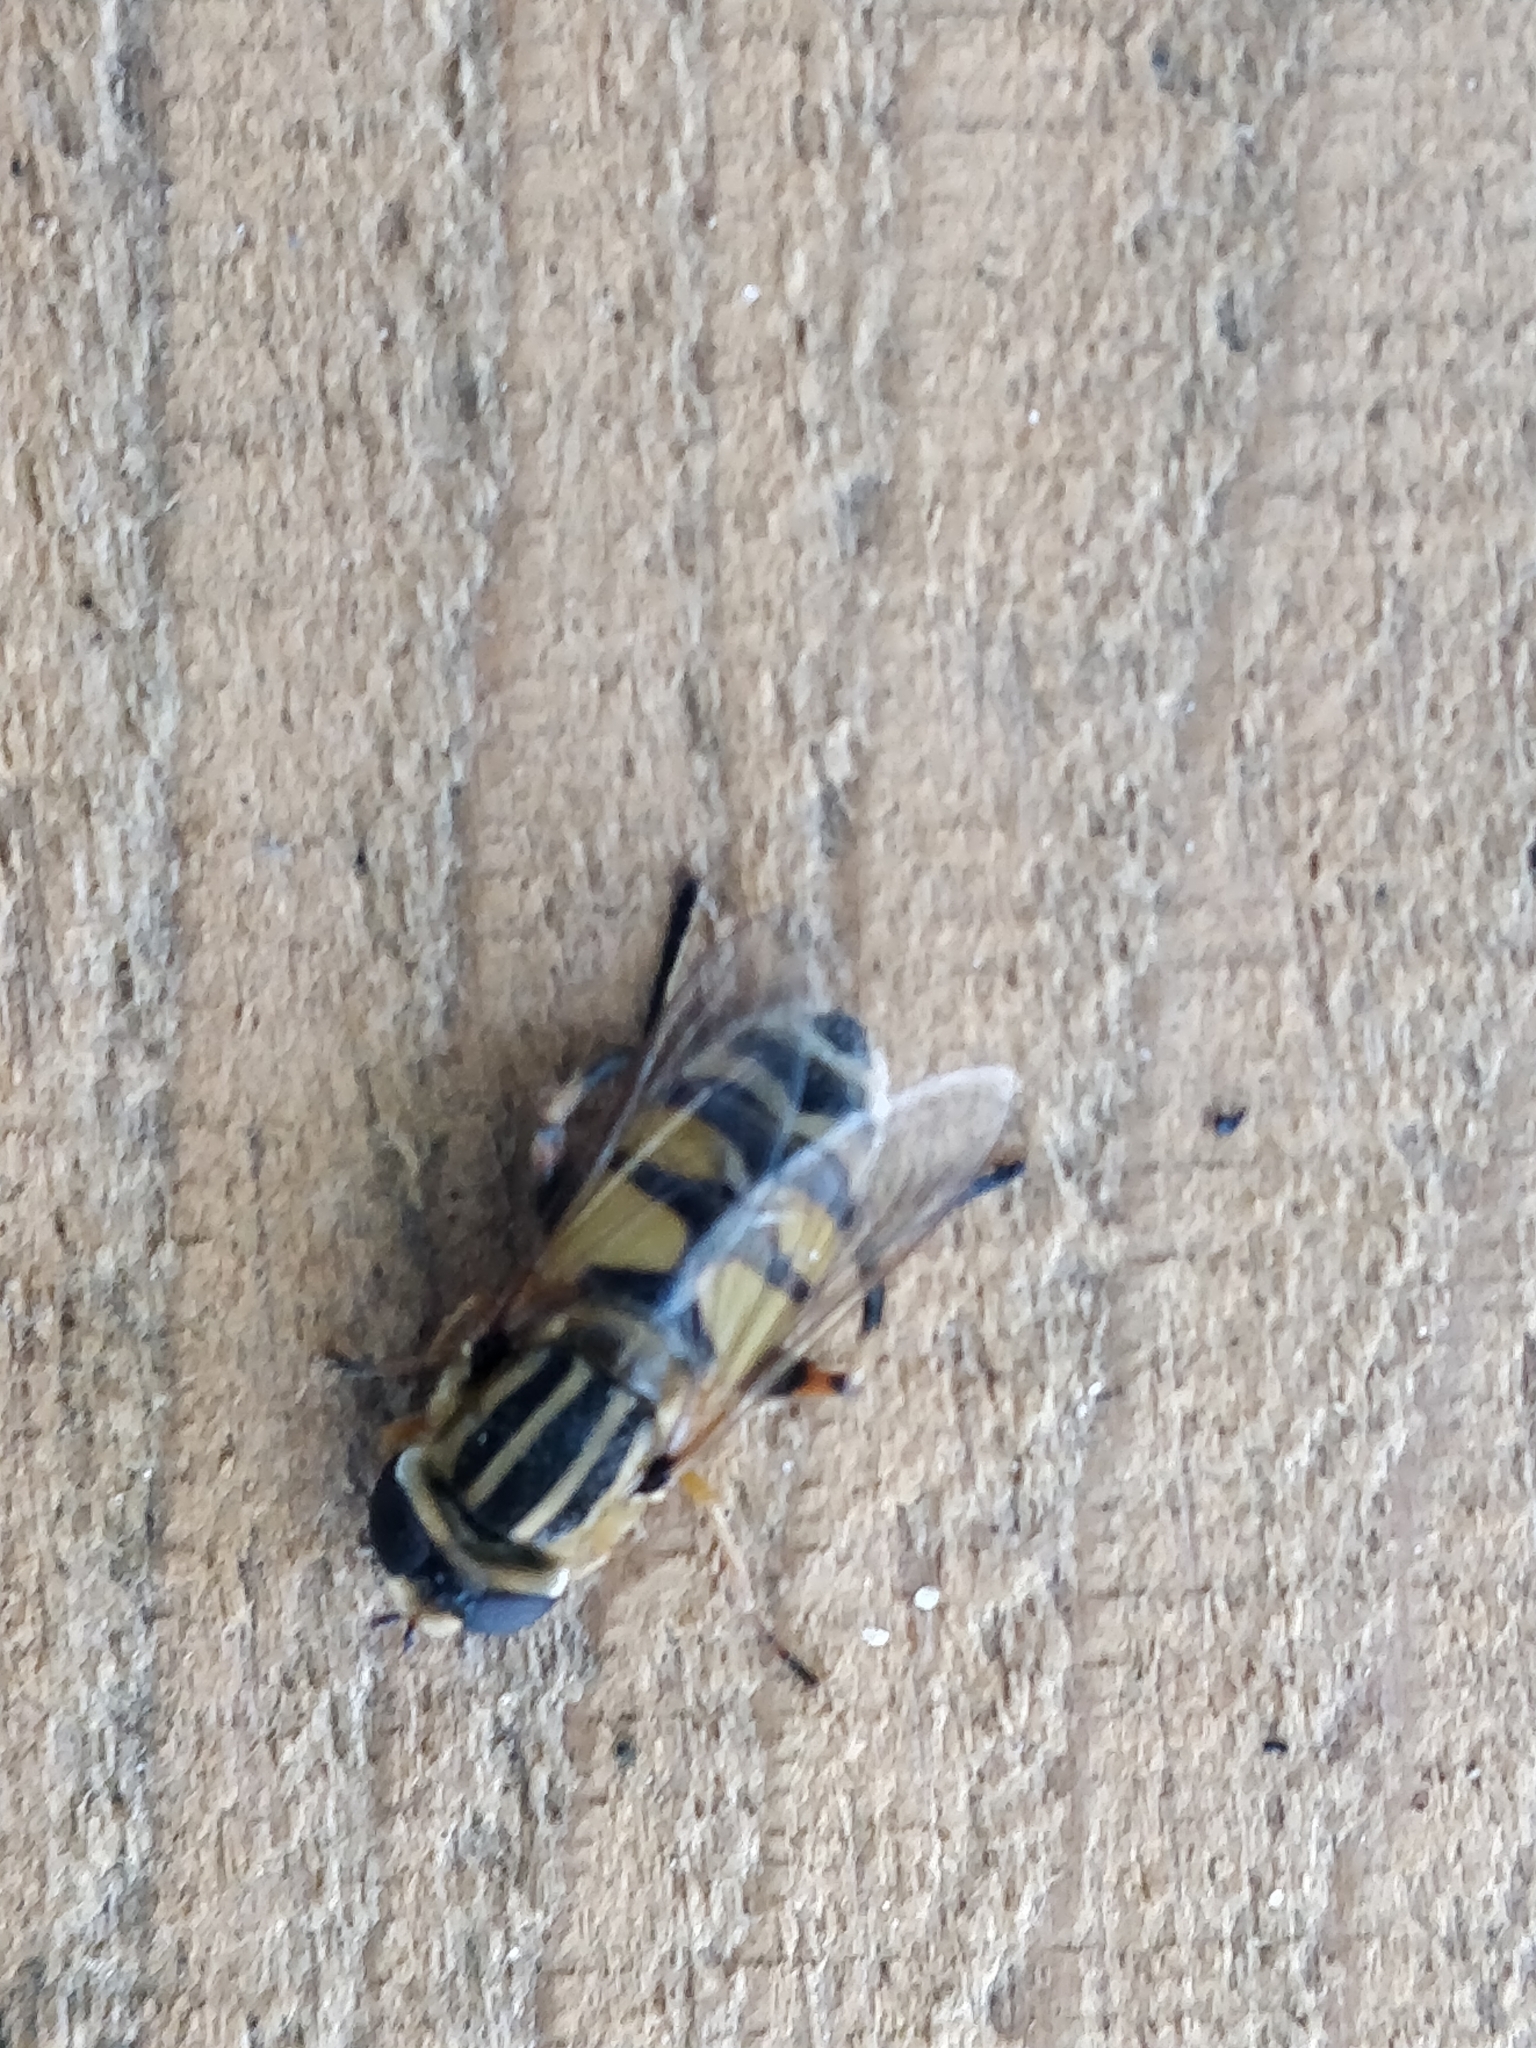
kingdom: Animalia
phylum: Arthropoda
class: Insecta
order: Diptera
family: Syrphidae
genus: Helophilus
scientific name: Helophilus latifrons
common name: Broad-headed marsh fly
